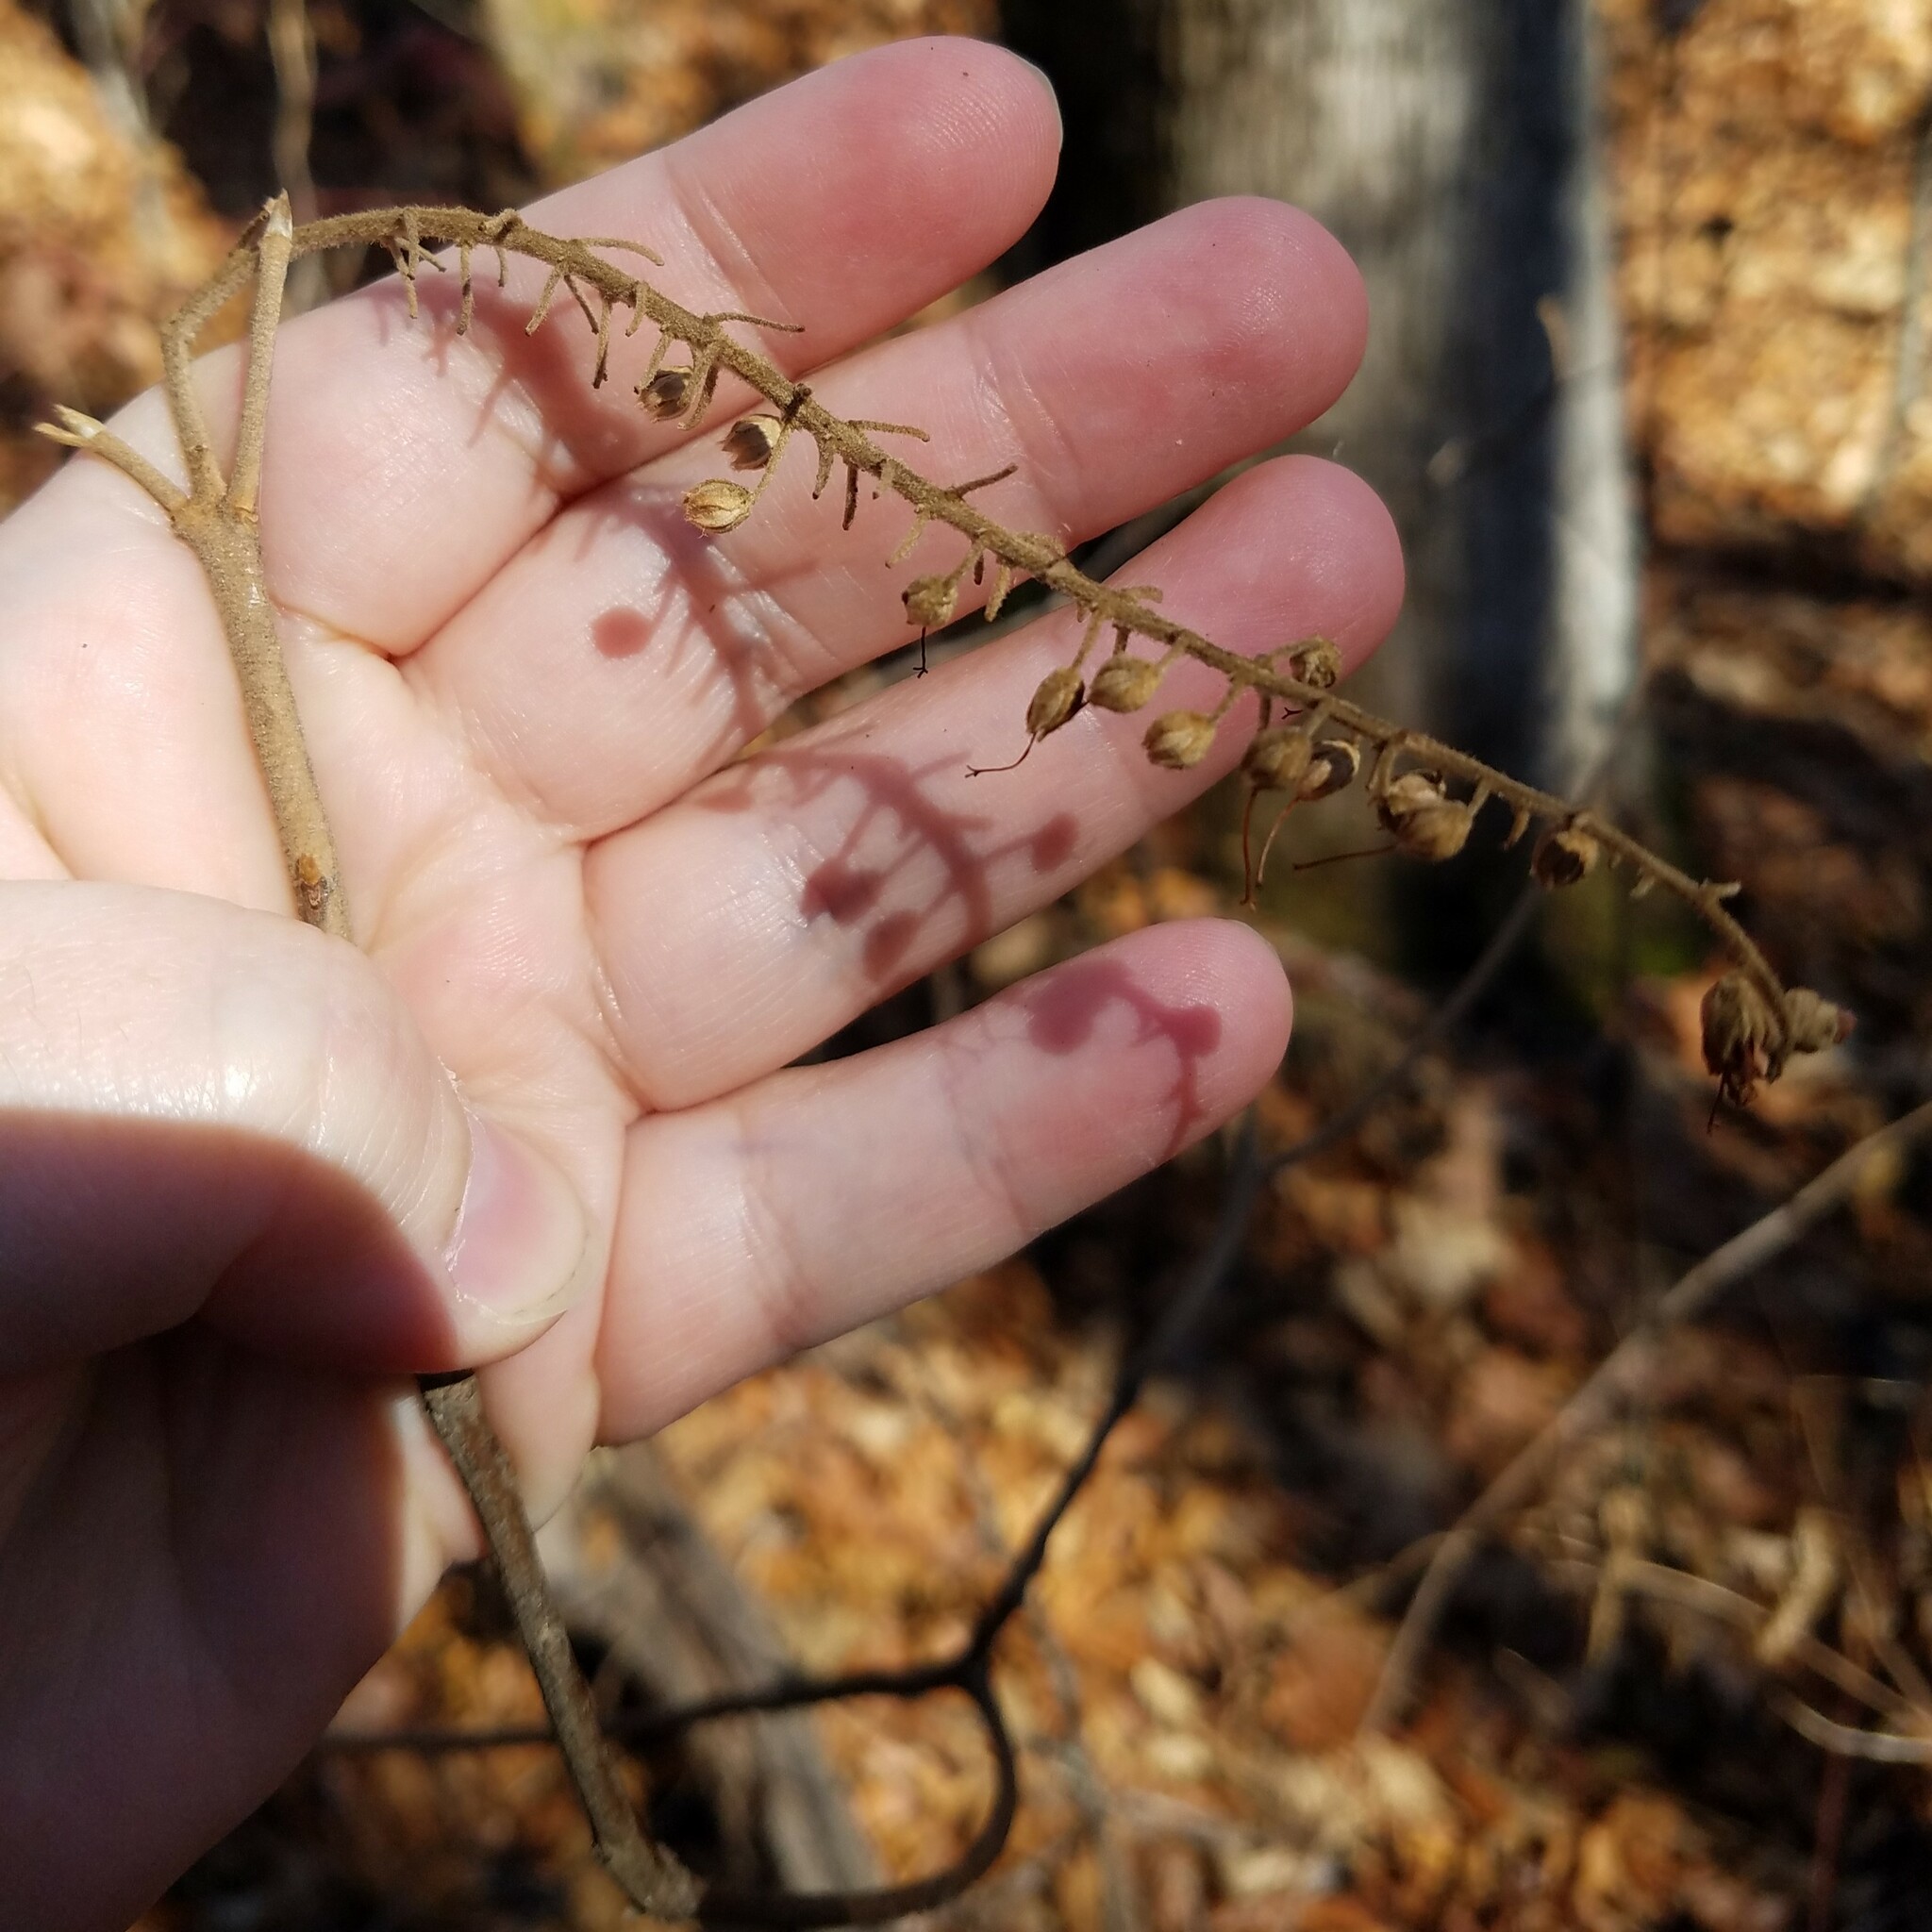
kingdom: Plantae
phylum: Tracheophyta
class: Magnoliopsida
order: Ericales
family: Clethraceae
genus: Clethra
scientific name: Clethra acuminata
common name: Mountain sweet pepperbush
